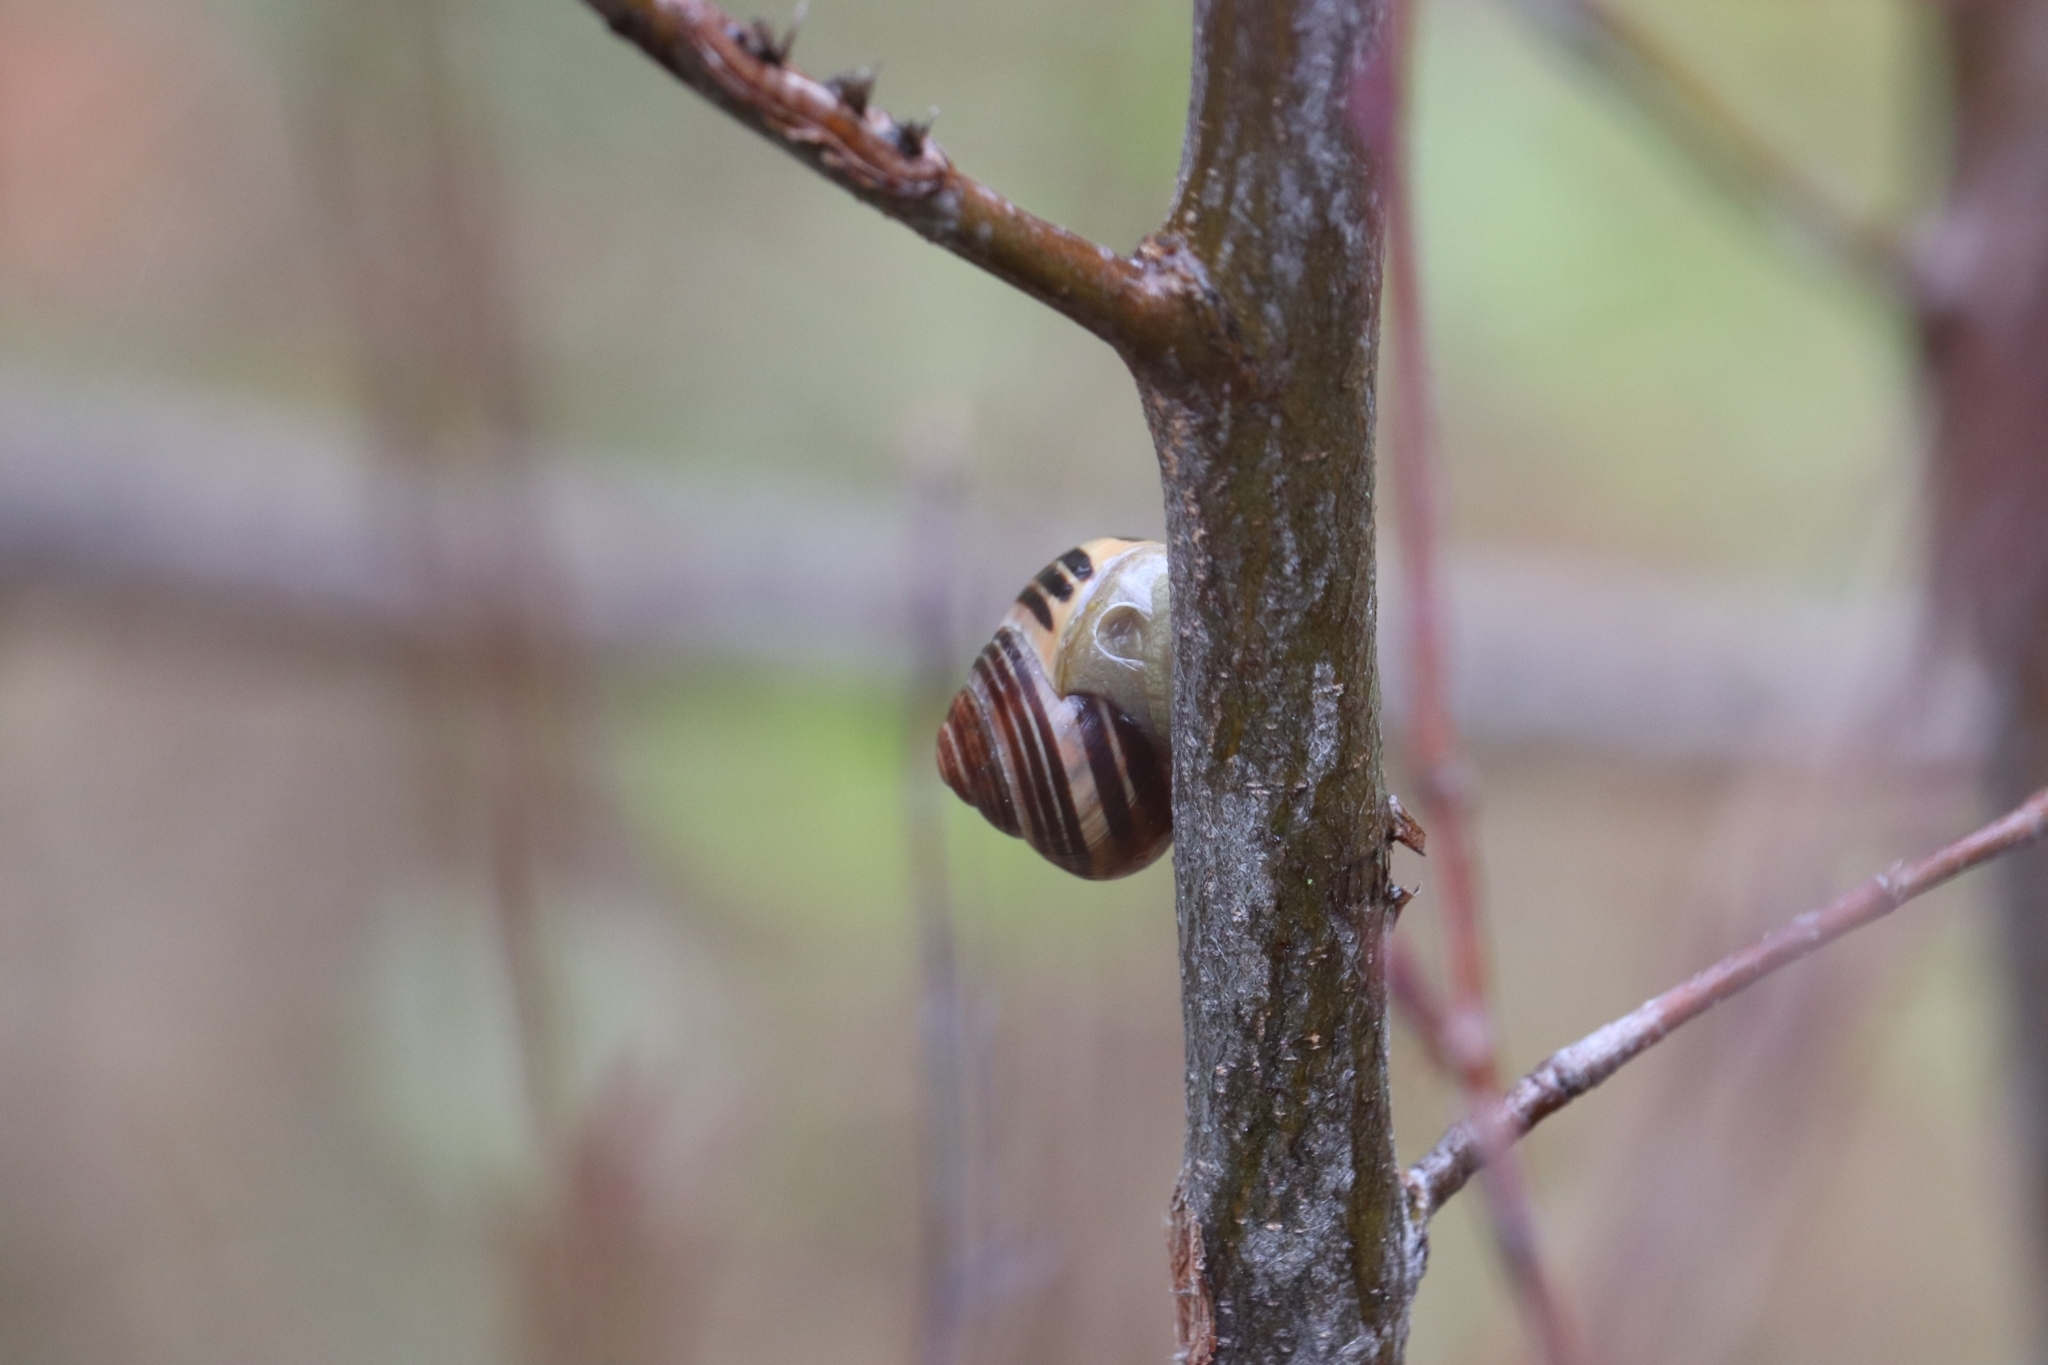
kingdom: Animalia
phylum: Mollusca
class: Gastropoda
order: Stylommatophora
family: Helicidae
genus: Cepaea
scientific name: Cepaea
